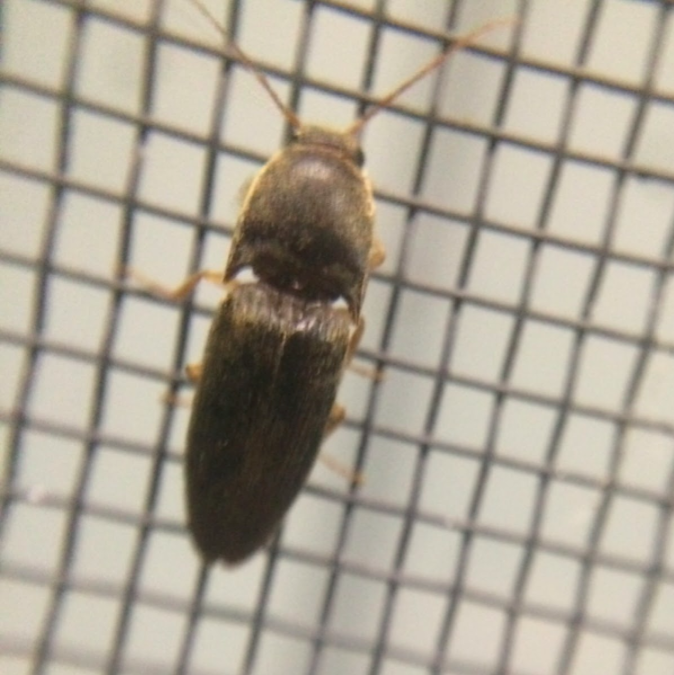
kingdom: Animalia
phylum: Arthropoda
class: Insecta
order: Coleoptera
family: Elateridae
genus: Conoderus
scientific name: Conoderus exsul
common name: Click beetle
